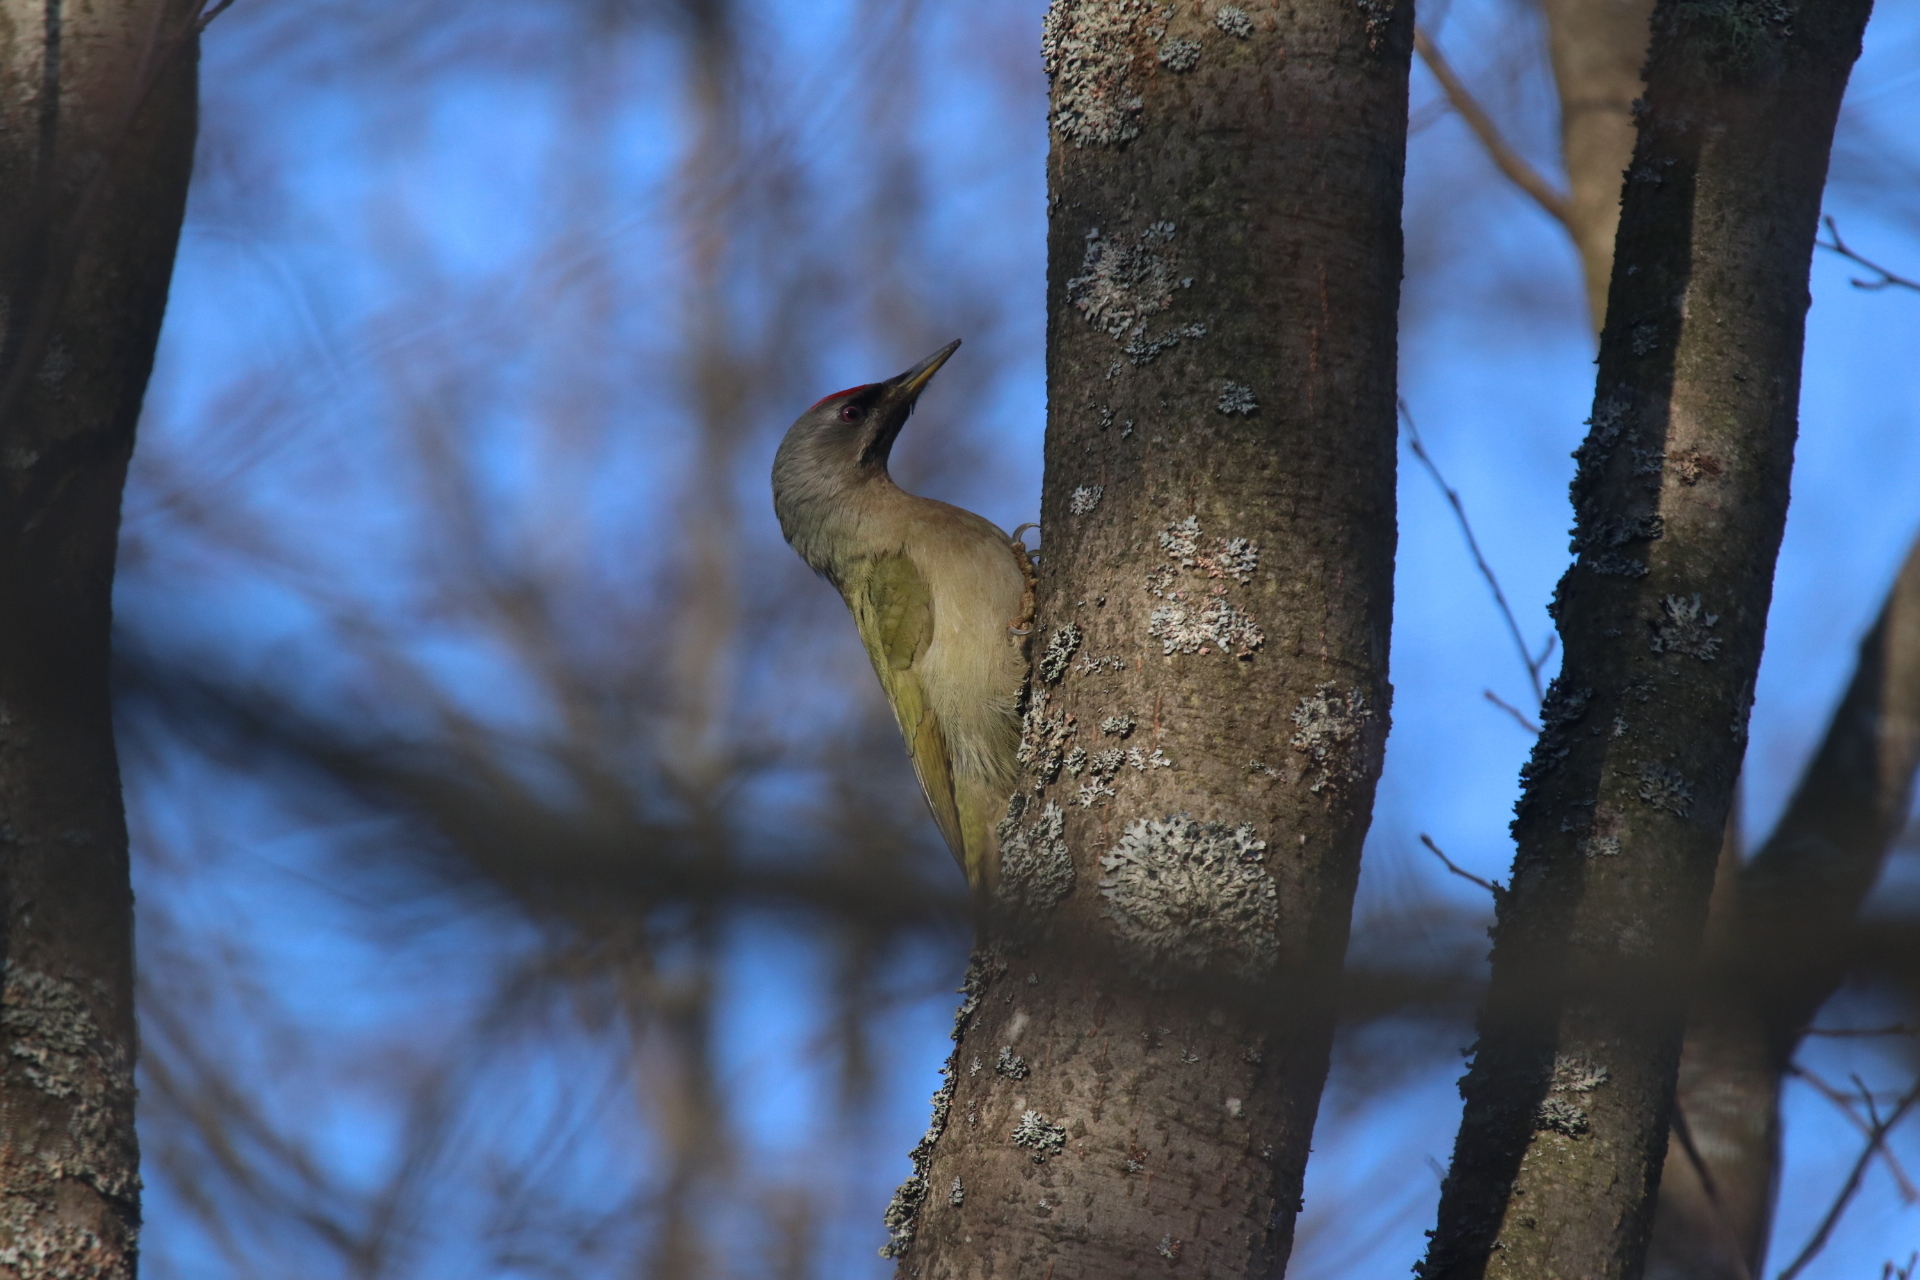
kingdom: Animalia
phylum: Chordata
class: Aves
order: Piciformes
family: Picidae
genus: Picus
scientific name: Picus canus
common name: Grey-headed woodpecker
